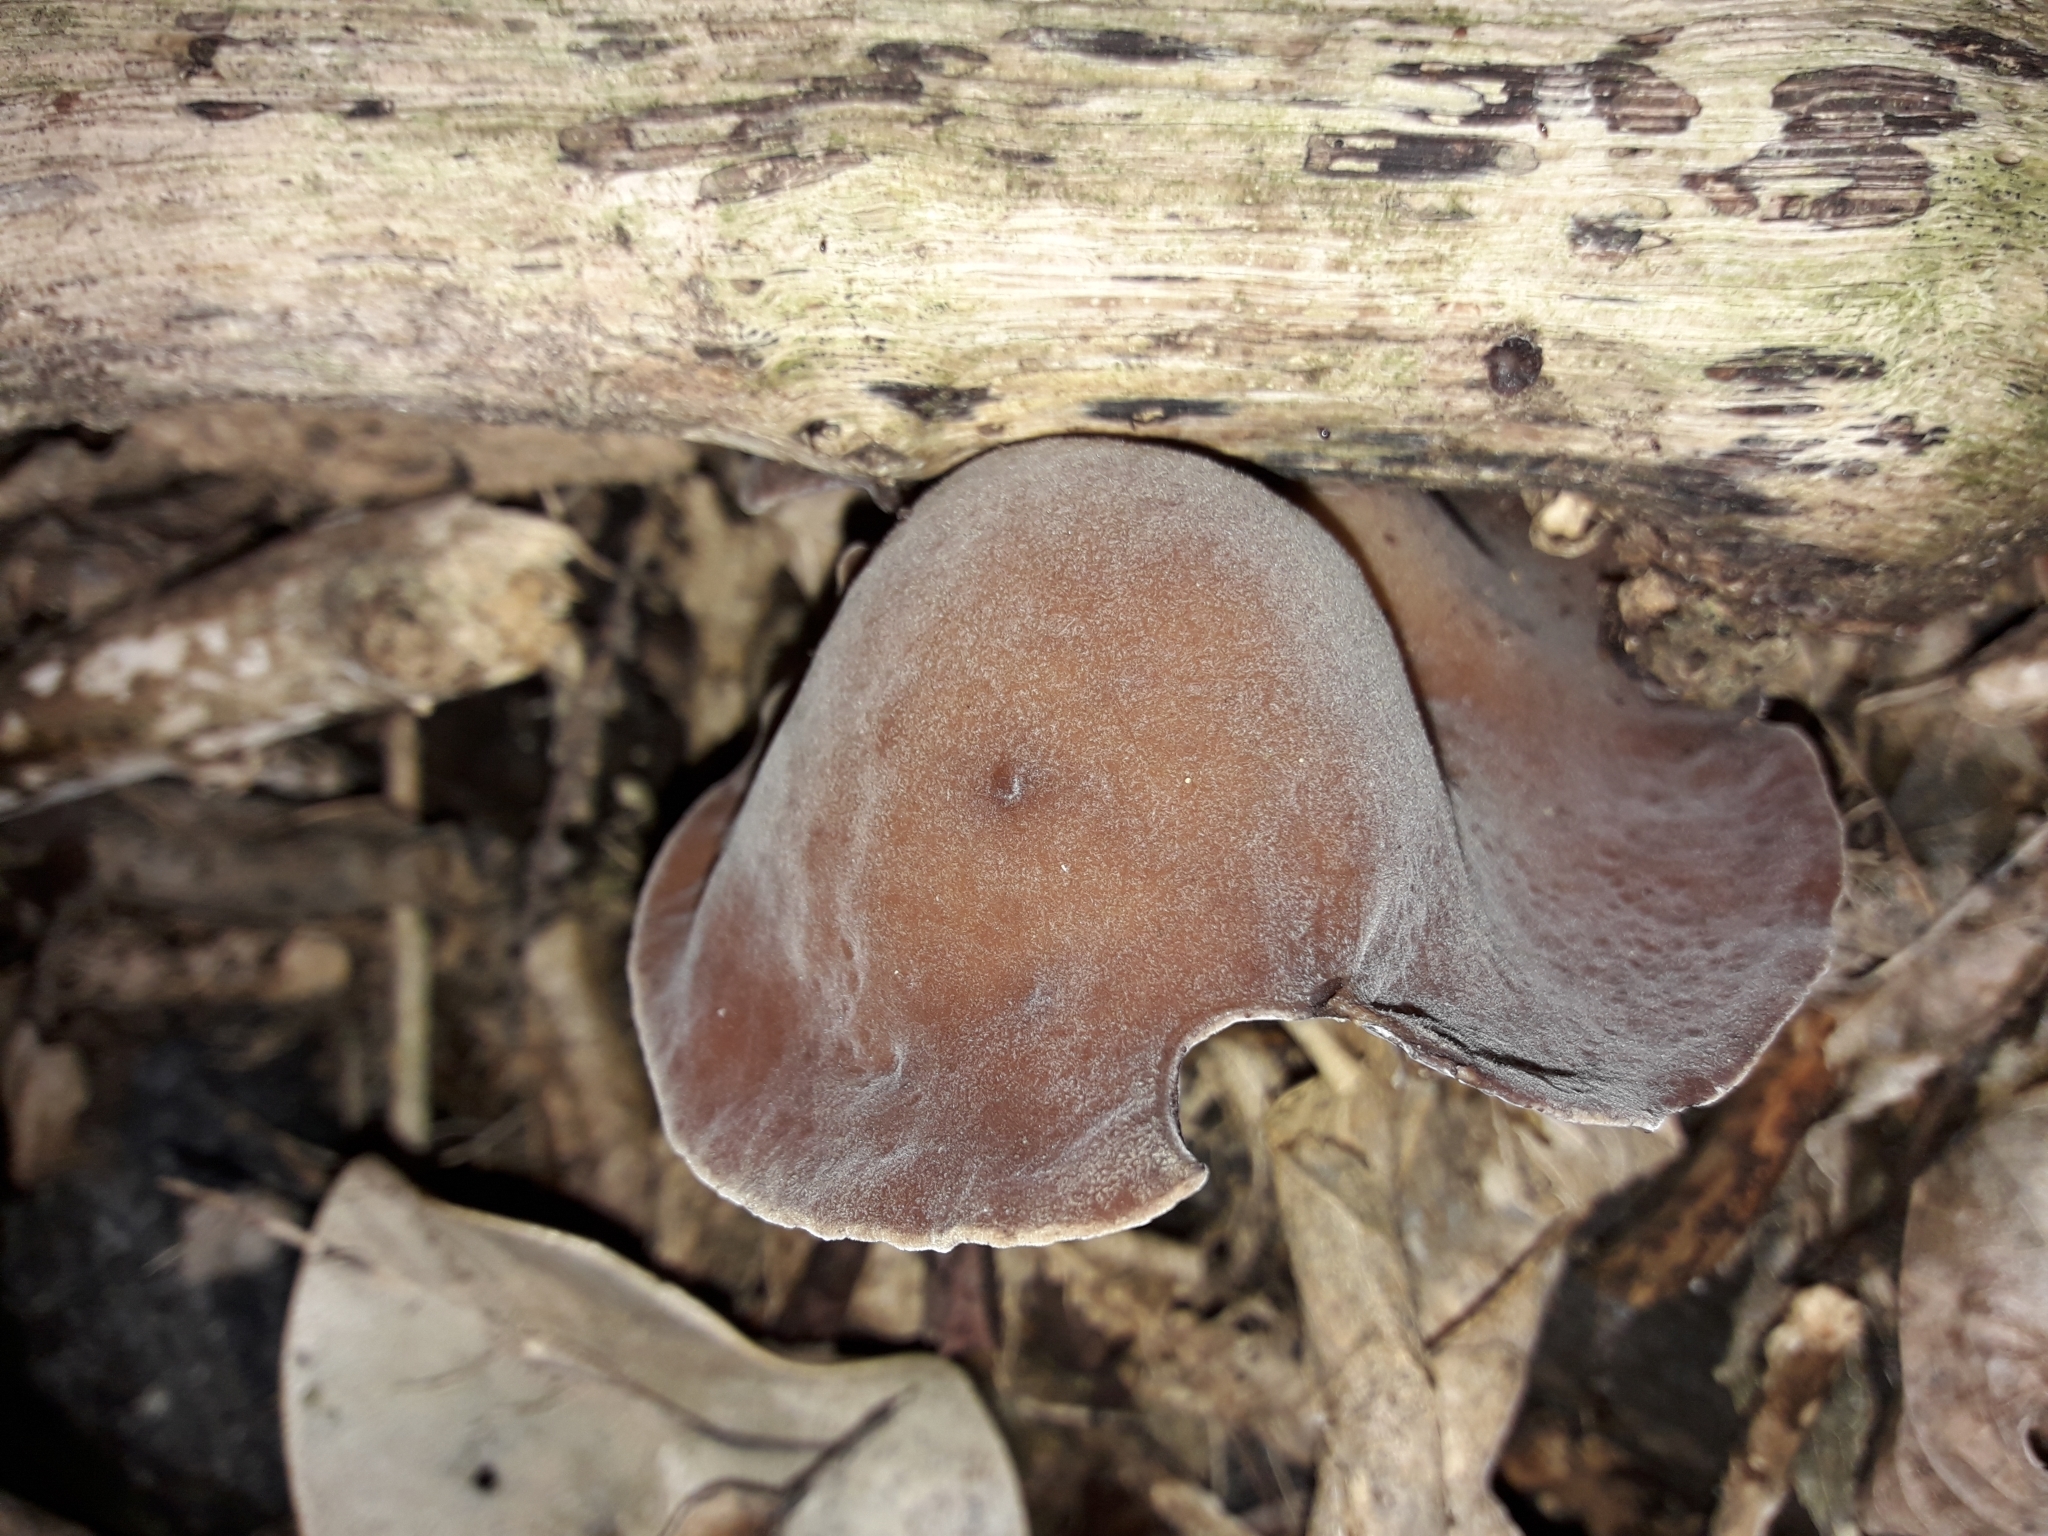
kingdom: Fungi
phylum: Basidiomycota
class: Agaricomycetes
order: Auriculariales
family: Auriculariaceae
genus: Auricularia
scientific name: Auricularia cornea
